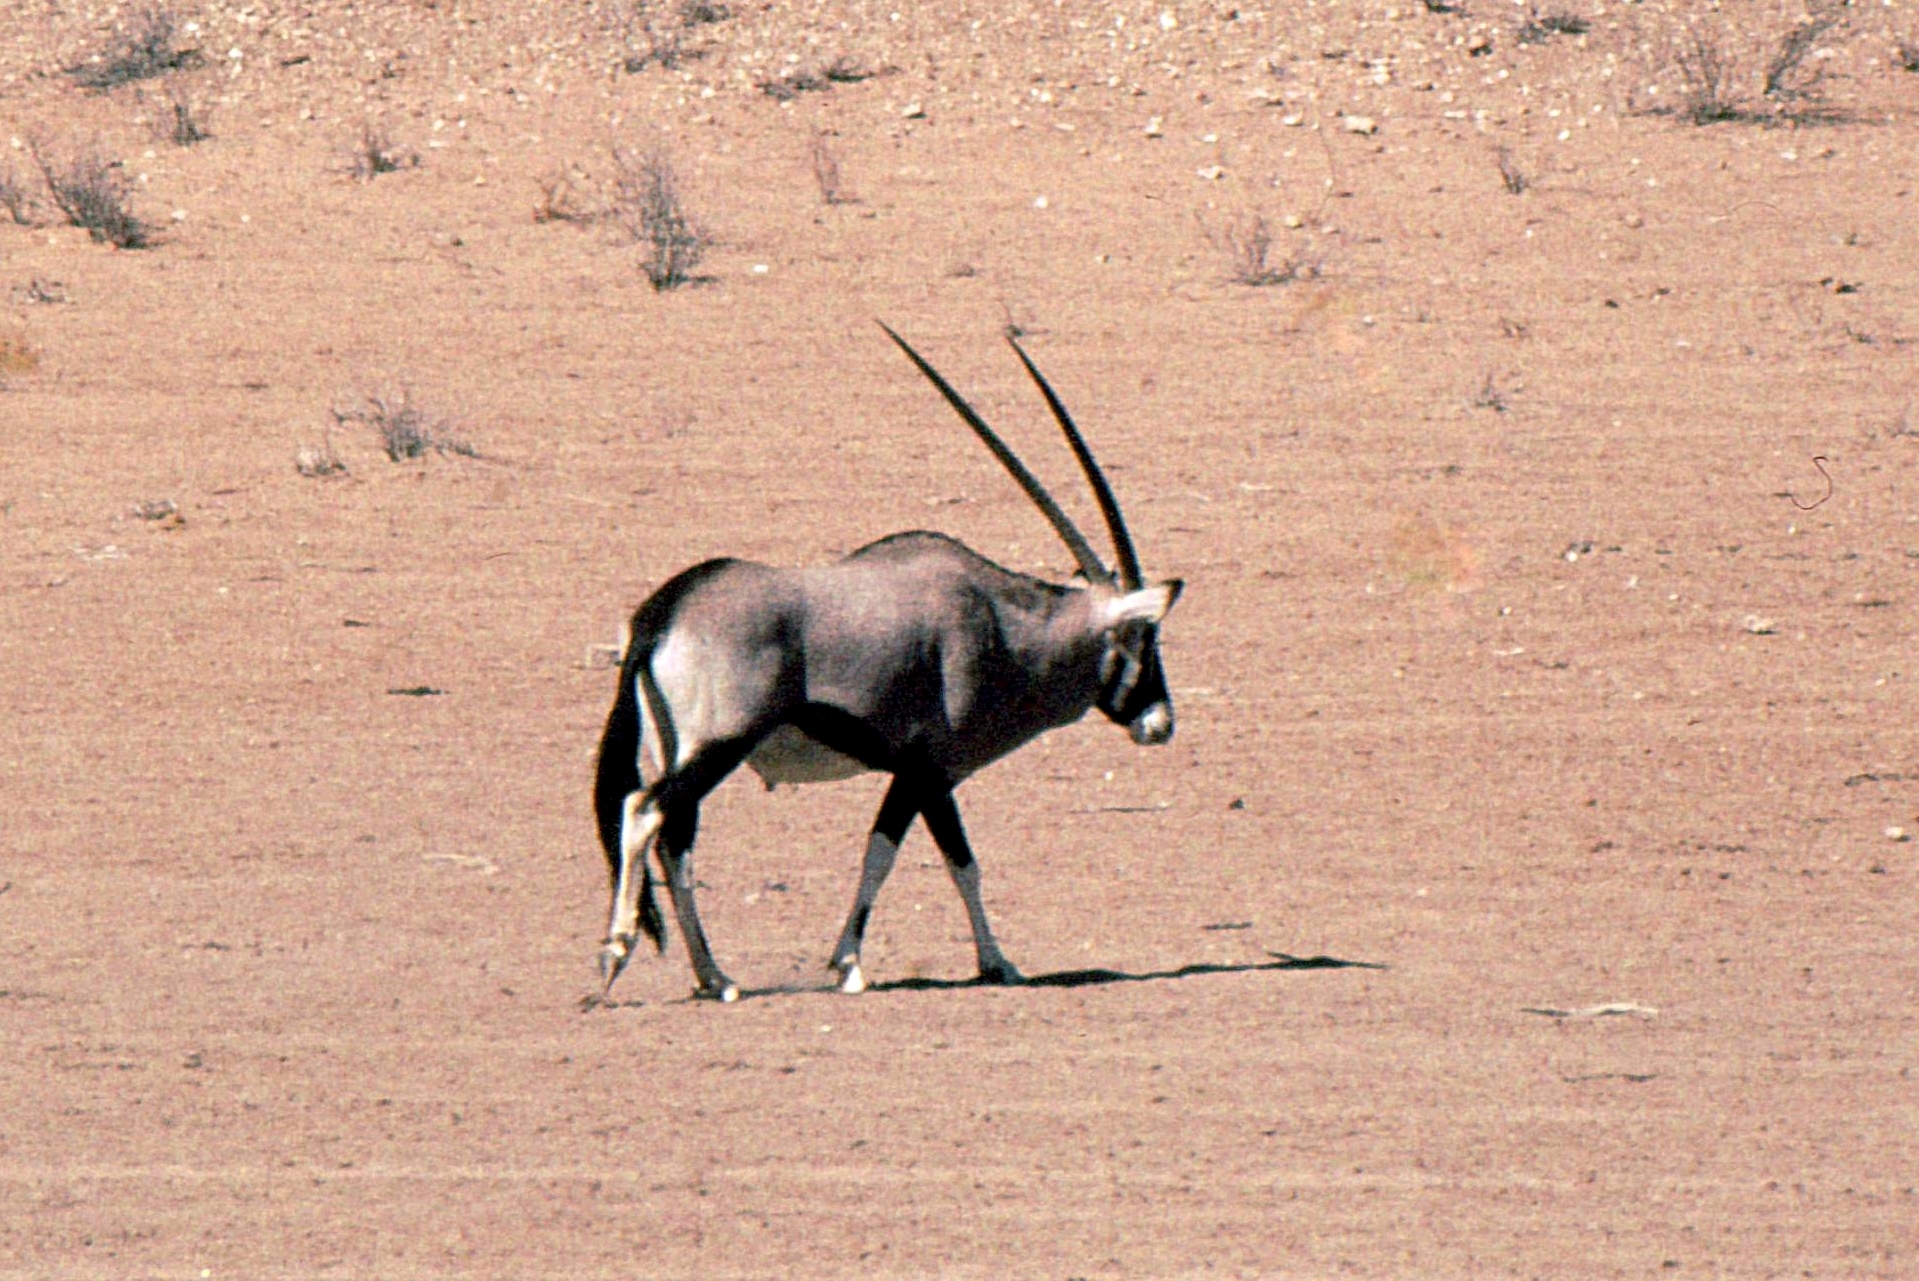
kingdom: Animalia
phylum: Chordata
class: Mammalia
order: Artiodactyla
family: Bovidae
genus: Oryx
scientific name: Oryx gazella
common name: Gemsbok
